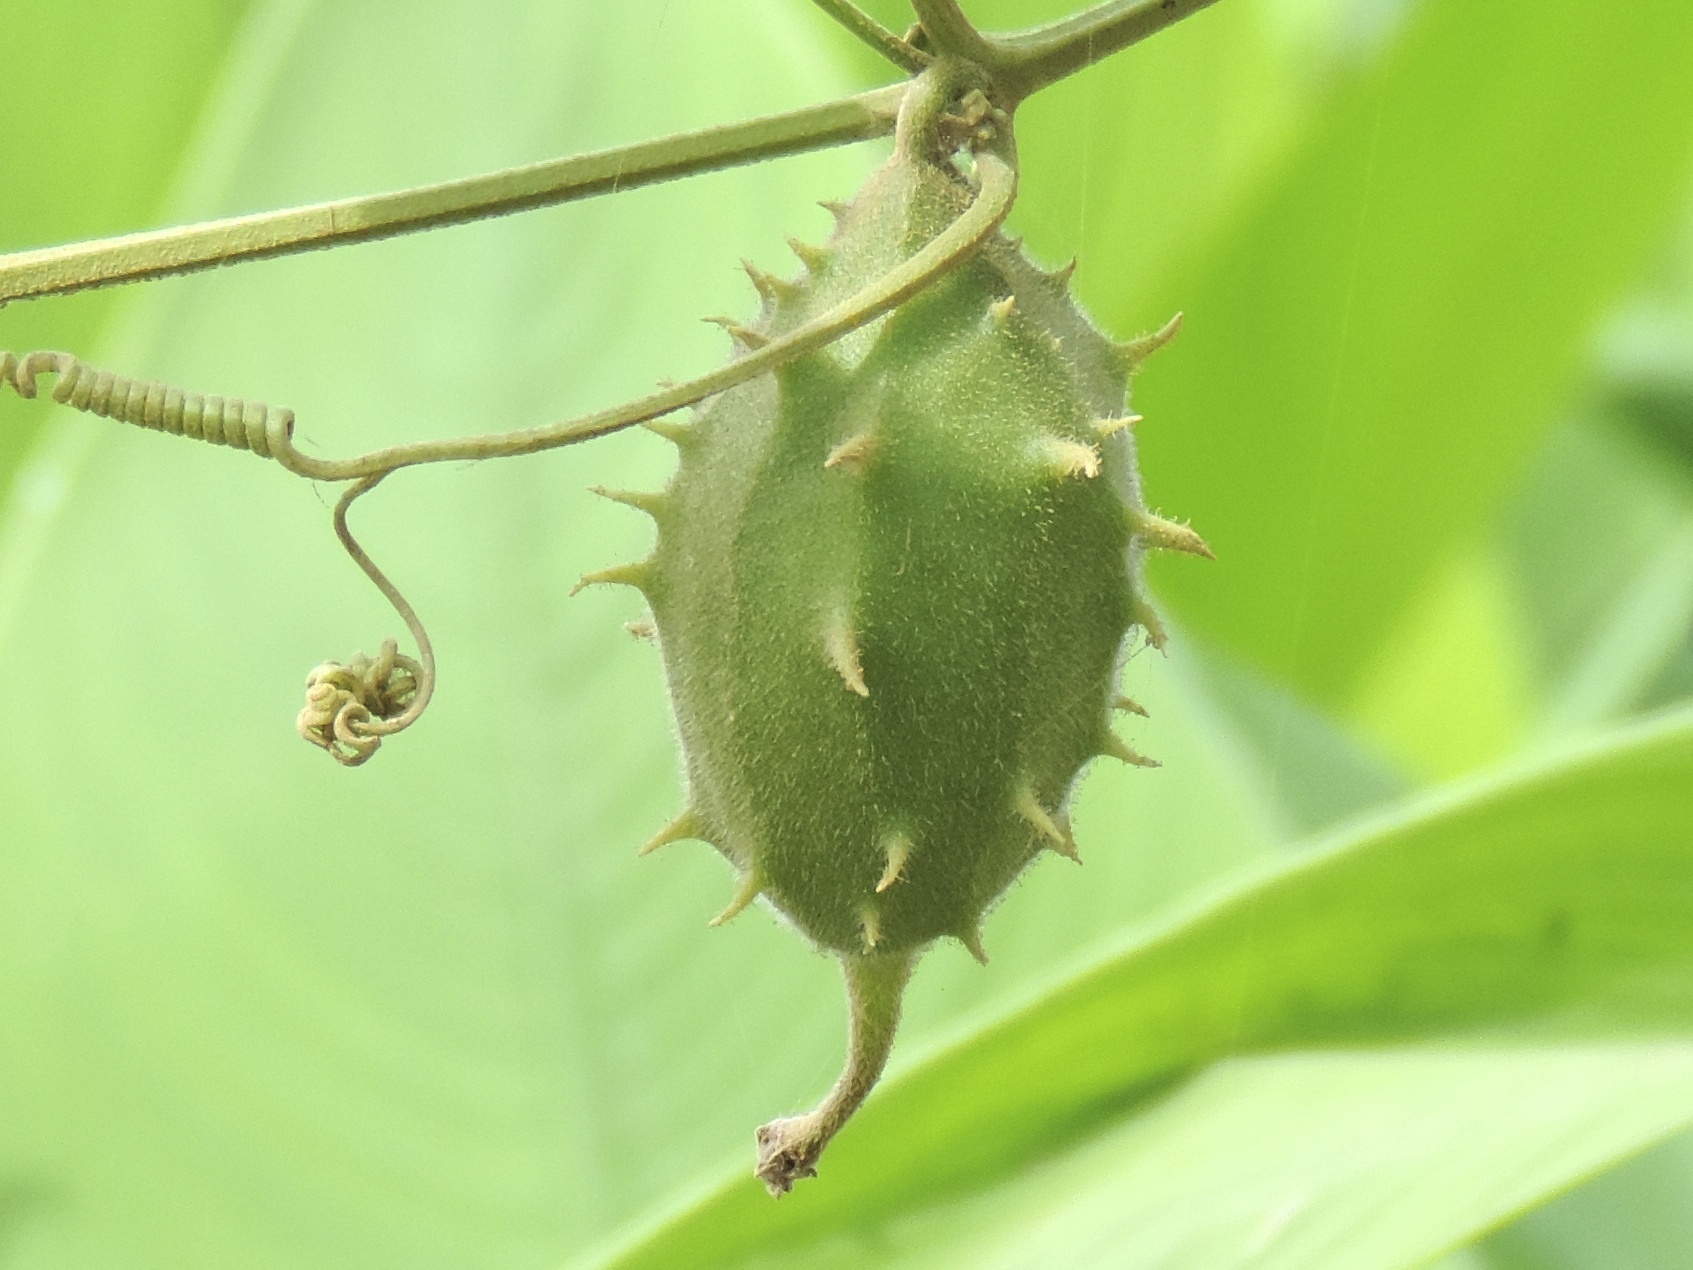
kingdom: Plantae
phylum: Tracheophyta
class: Magnoliopsida
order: Cucurbitales
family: Cucurbitaceae
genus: Luffa
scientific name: Luffa operculata
